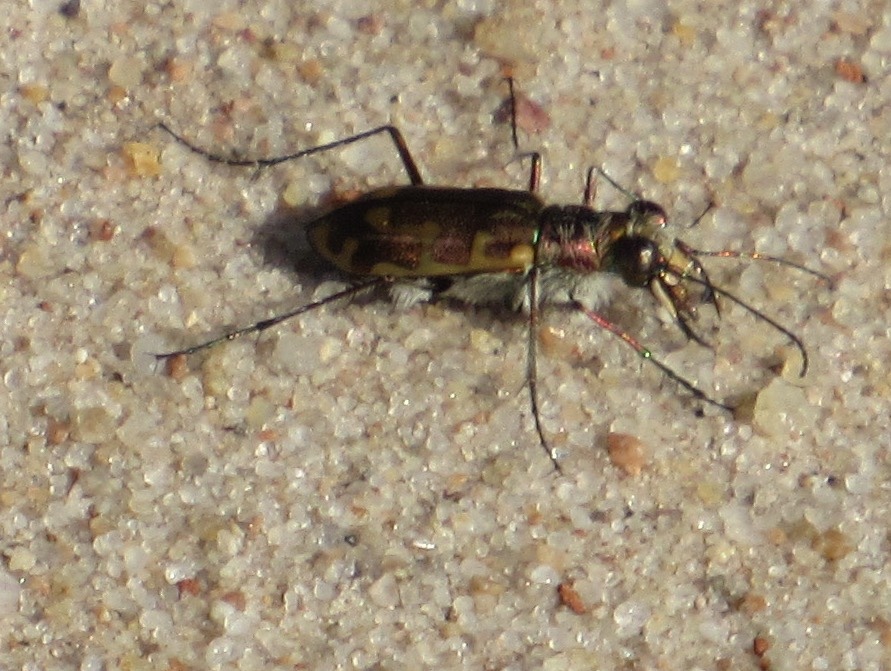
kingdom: Animalia
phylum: Arthropoda
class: Insecta
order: Coleoptera
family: Carabidae
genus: Cicindela
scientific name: Cicindela hirticollis
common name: Hairy-necked tiger beetle
